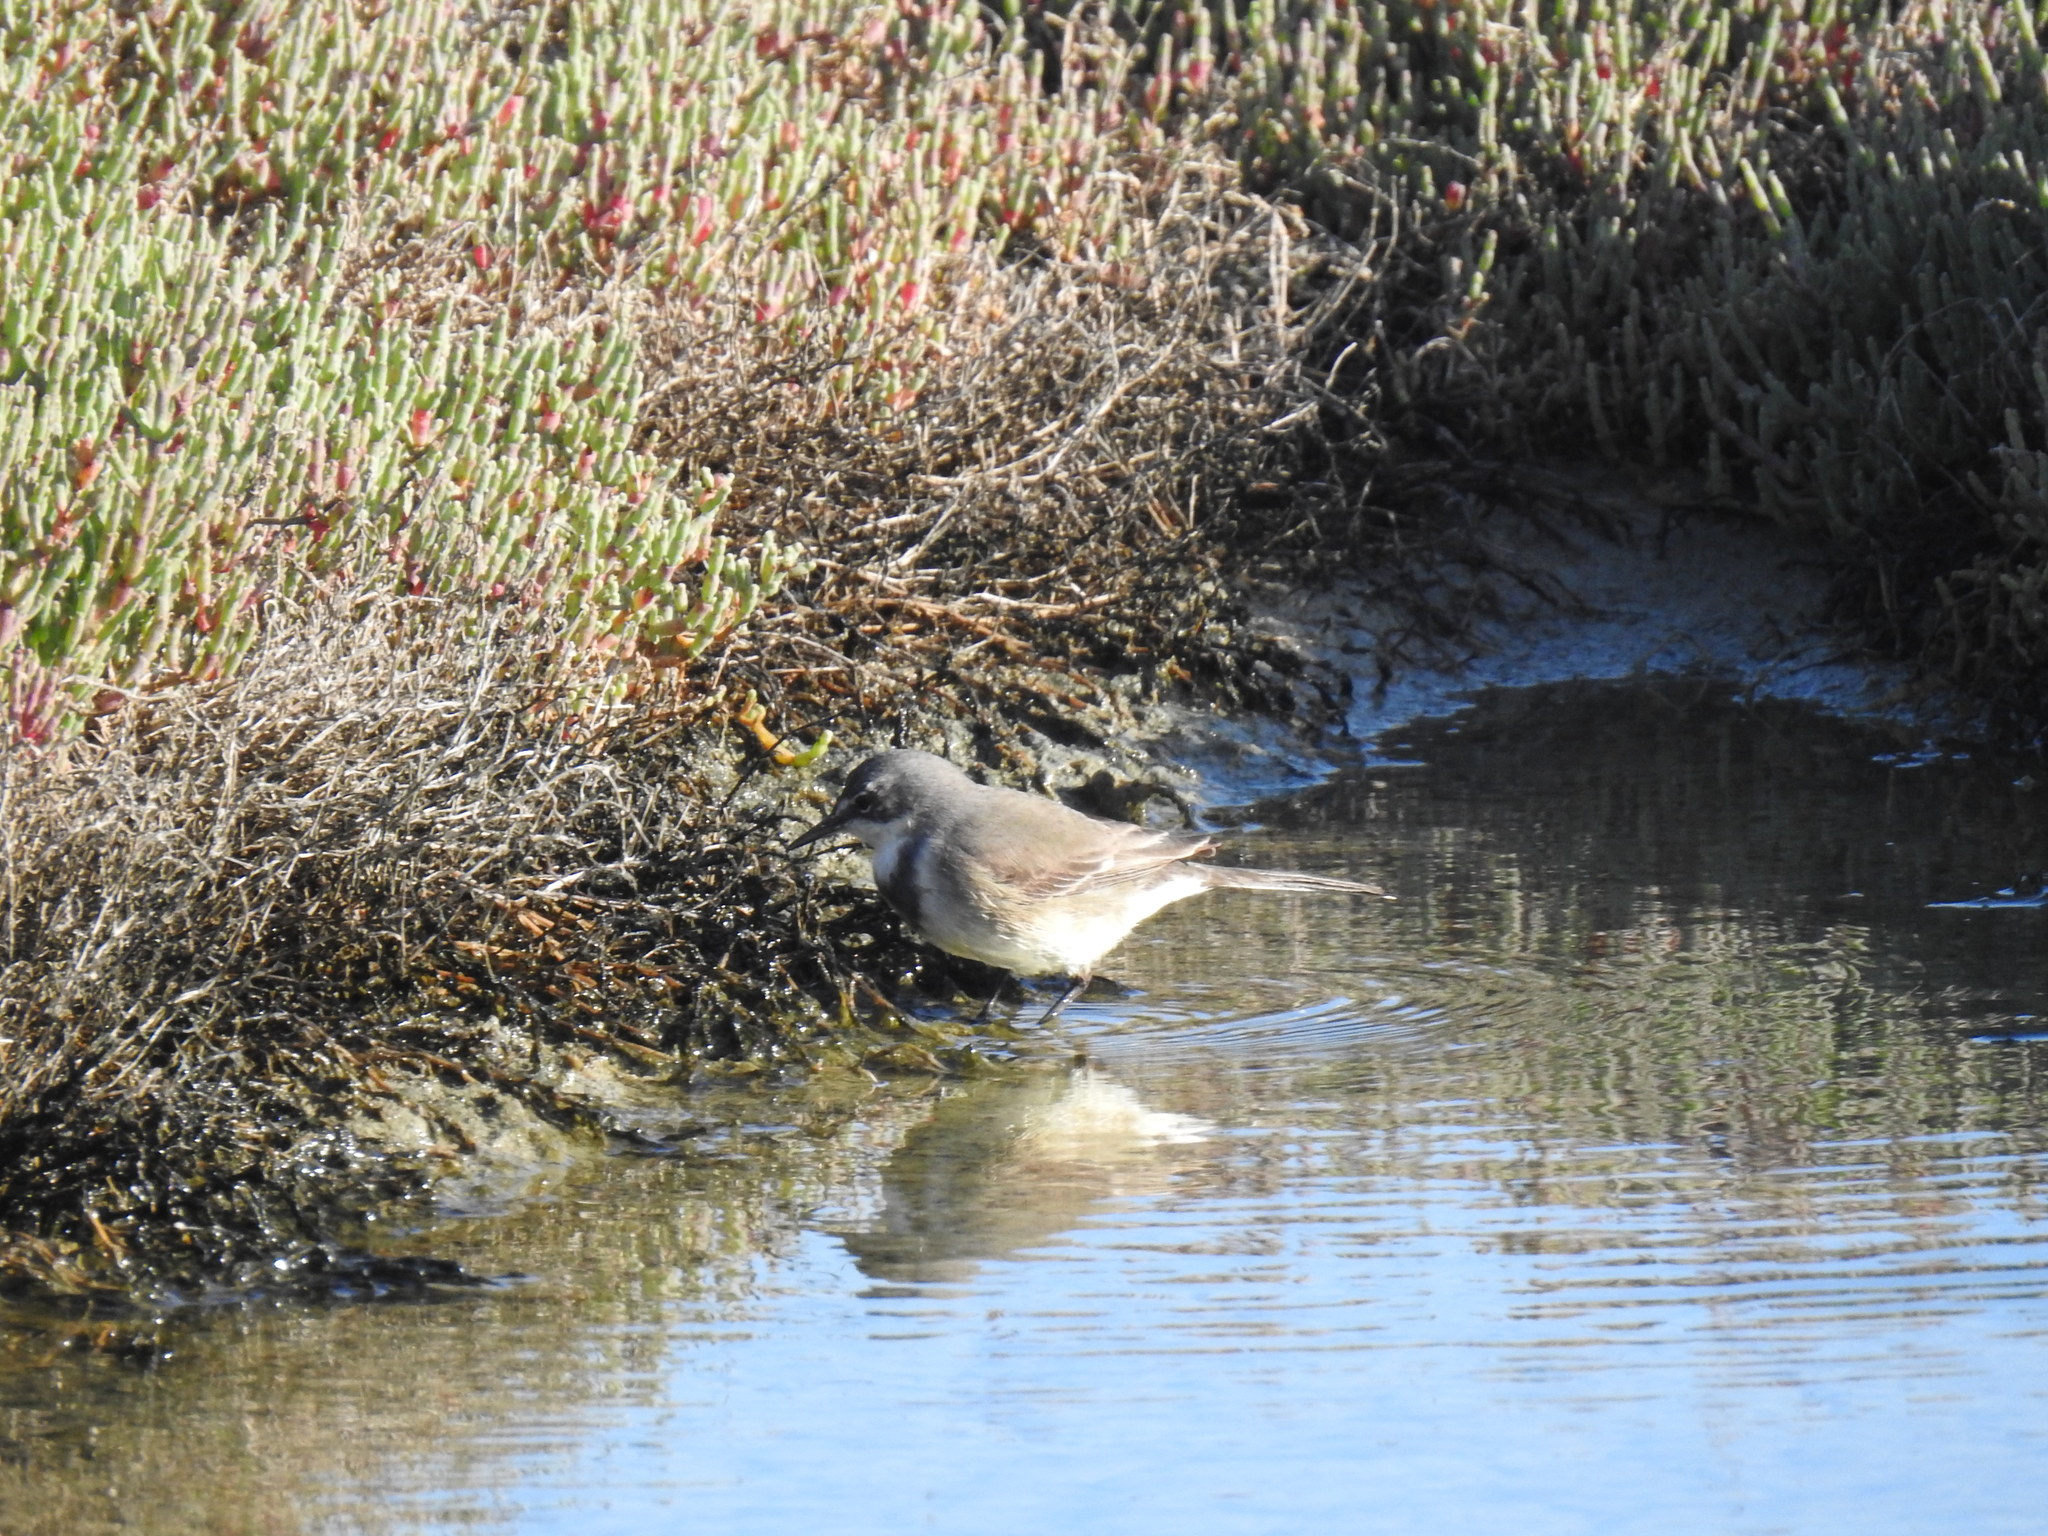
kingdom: Animalia
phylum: Chordata
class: Aves
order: Passeriformes
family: Motacillidae
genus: Motacilla
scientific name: Motacilla capensis
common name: Cape wagtail
